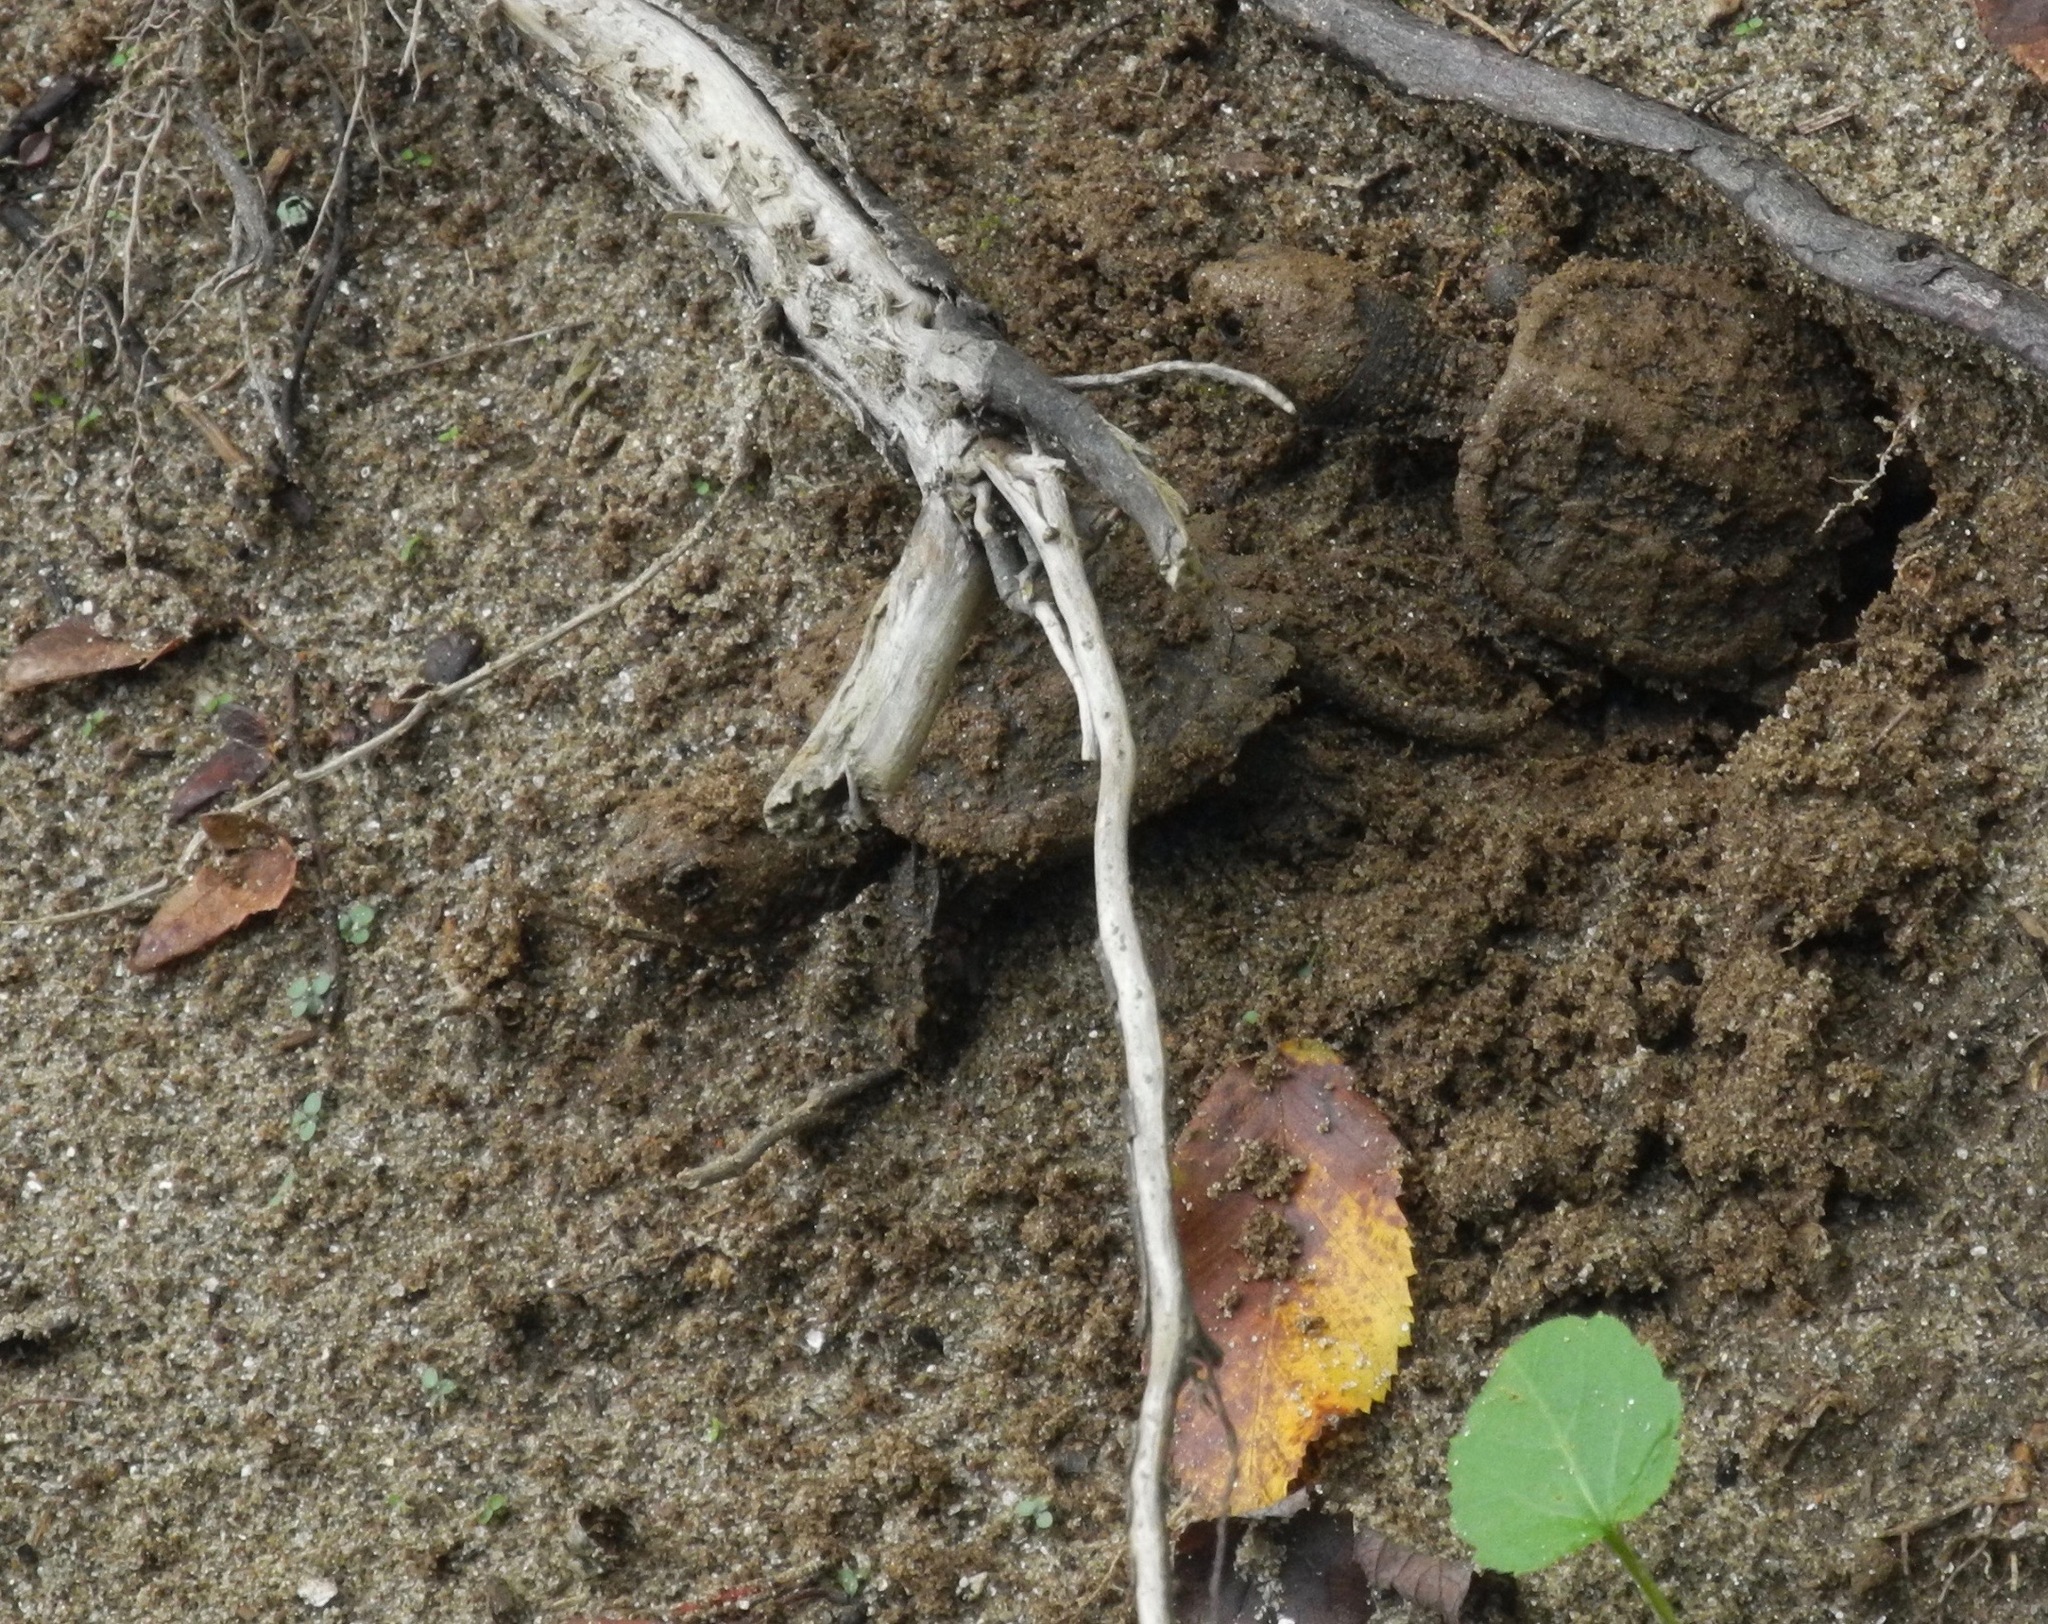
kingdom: Animalia
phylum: Chordata
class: Testudines
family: Chelydridae
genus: Chelydra
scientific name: Chelydra serpentina
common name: Common snapping turtle
